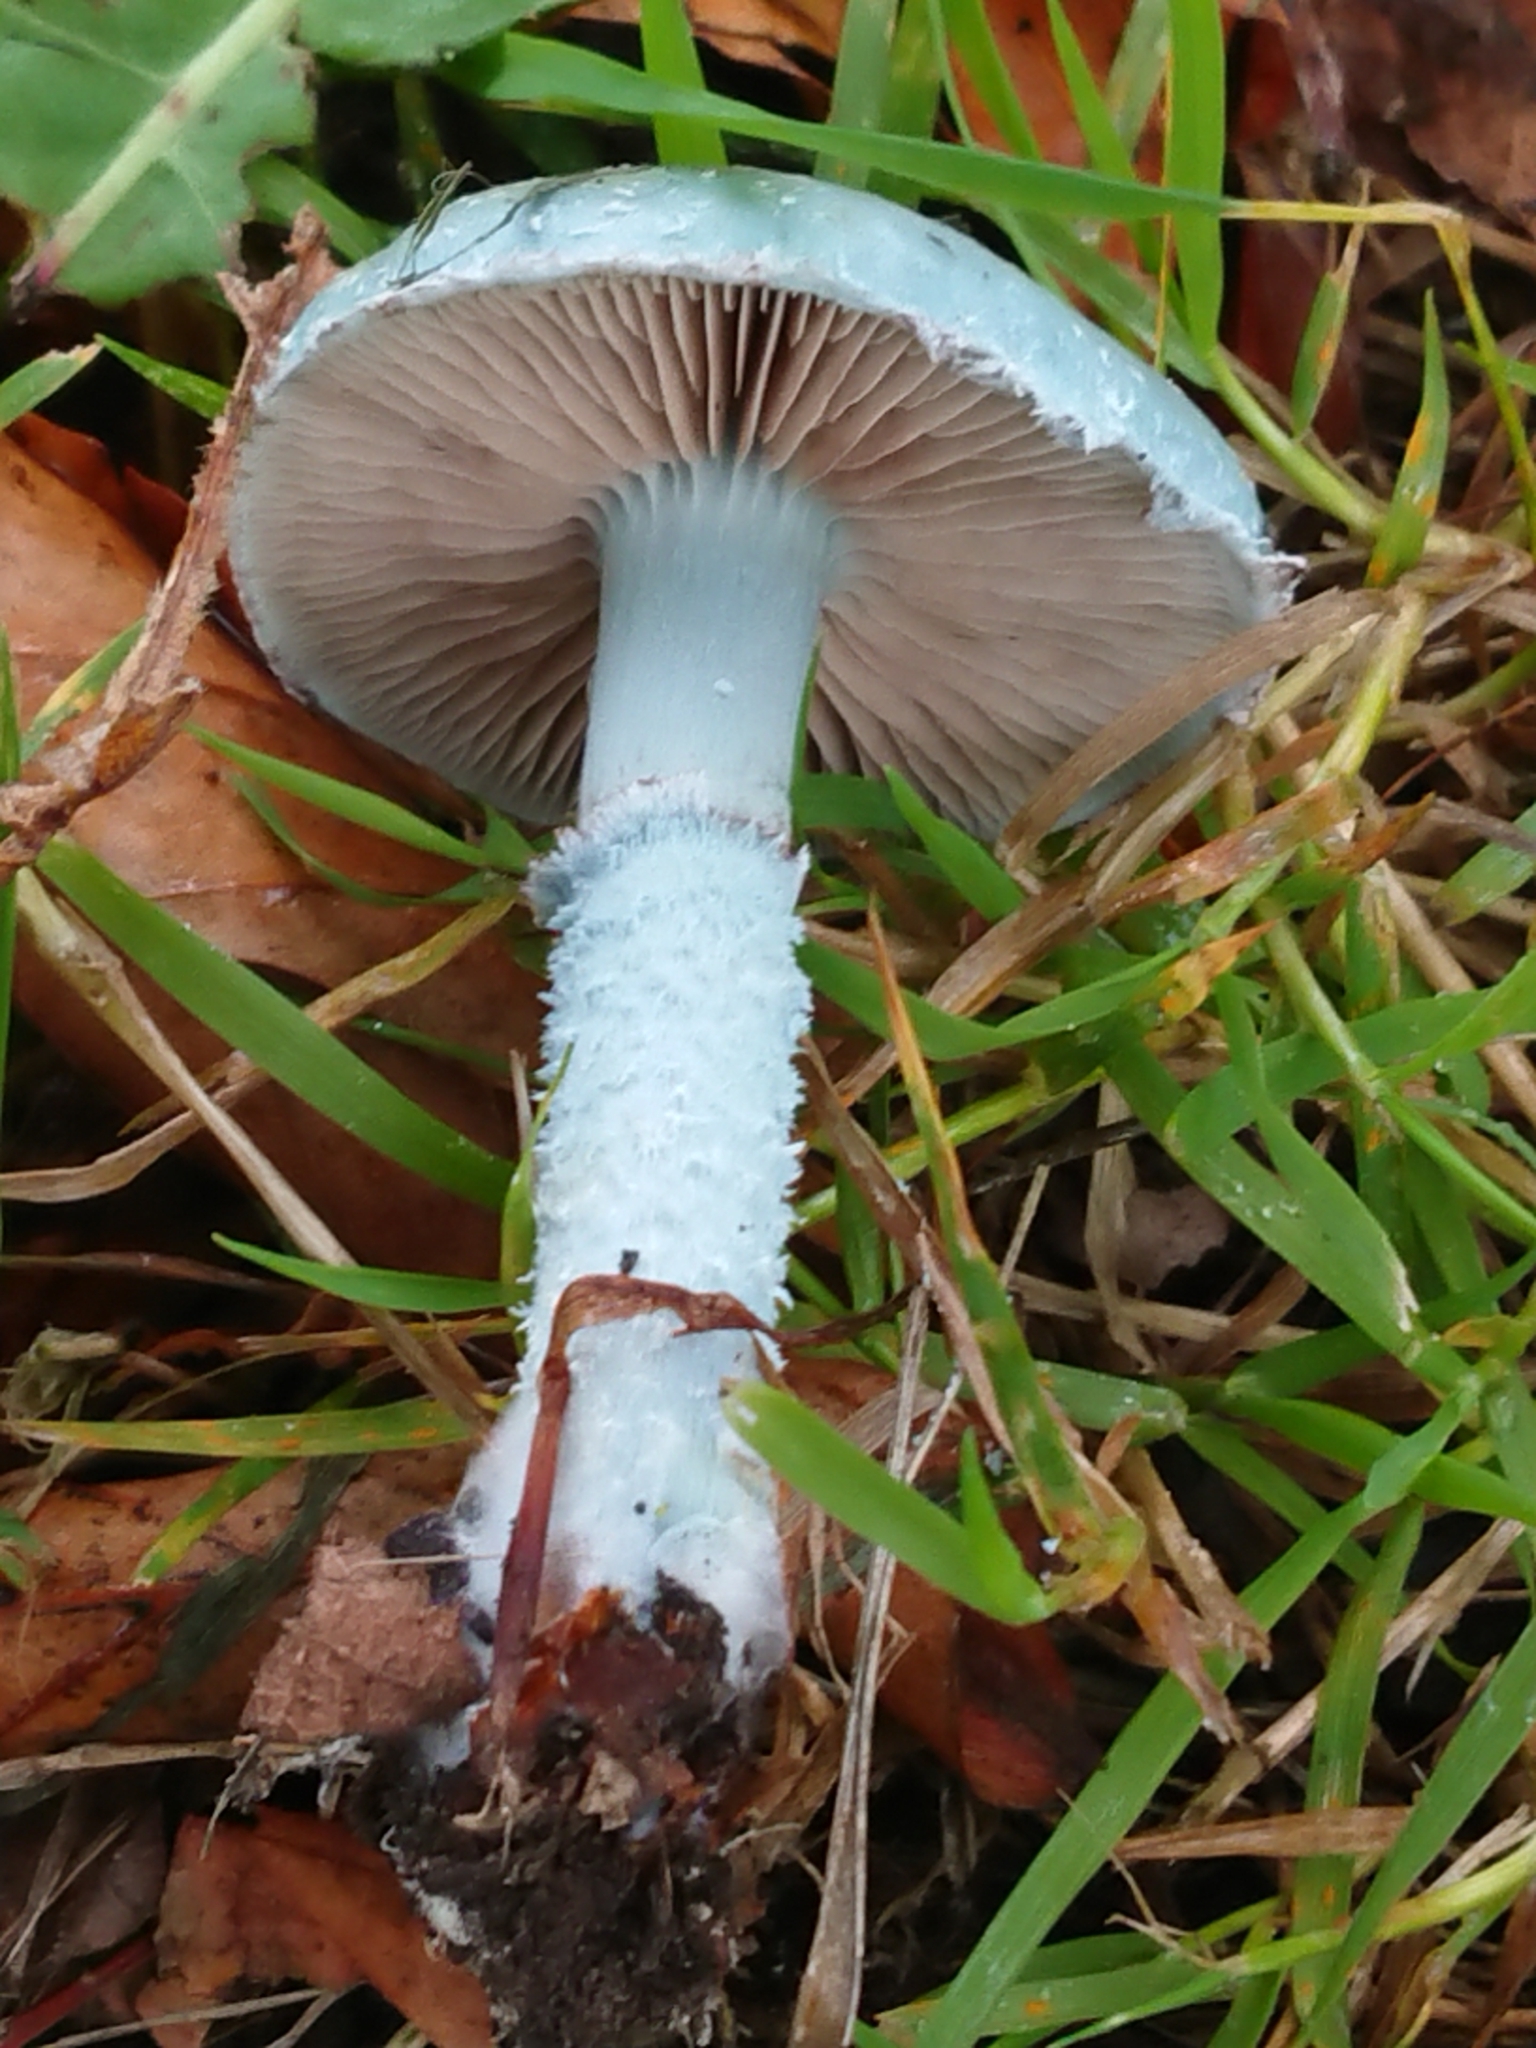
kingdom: Fungi
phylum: Basidiomycota
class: Agaricomycetes
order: Agaricales
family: Strophariaceae
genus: Stropharia
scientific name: Stropharia caerulea
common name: Blue roundhead
